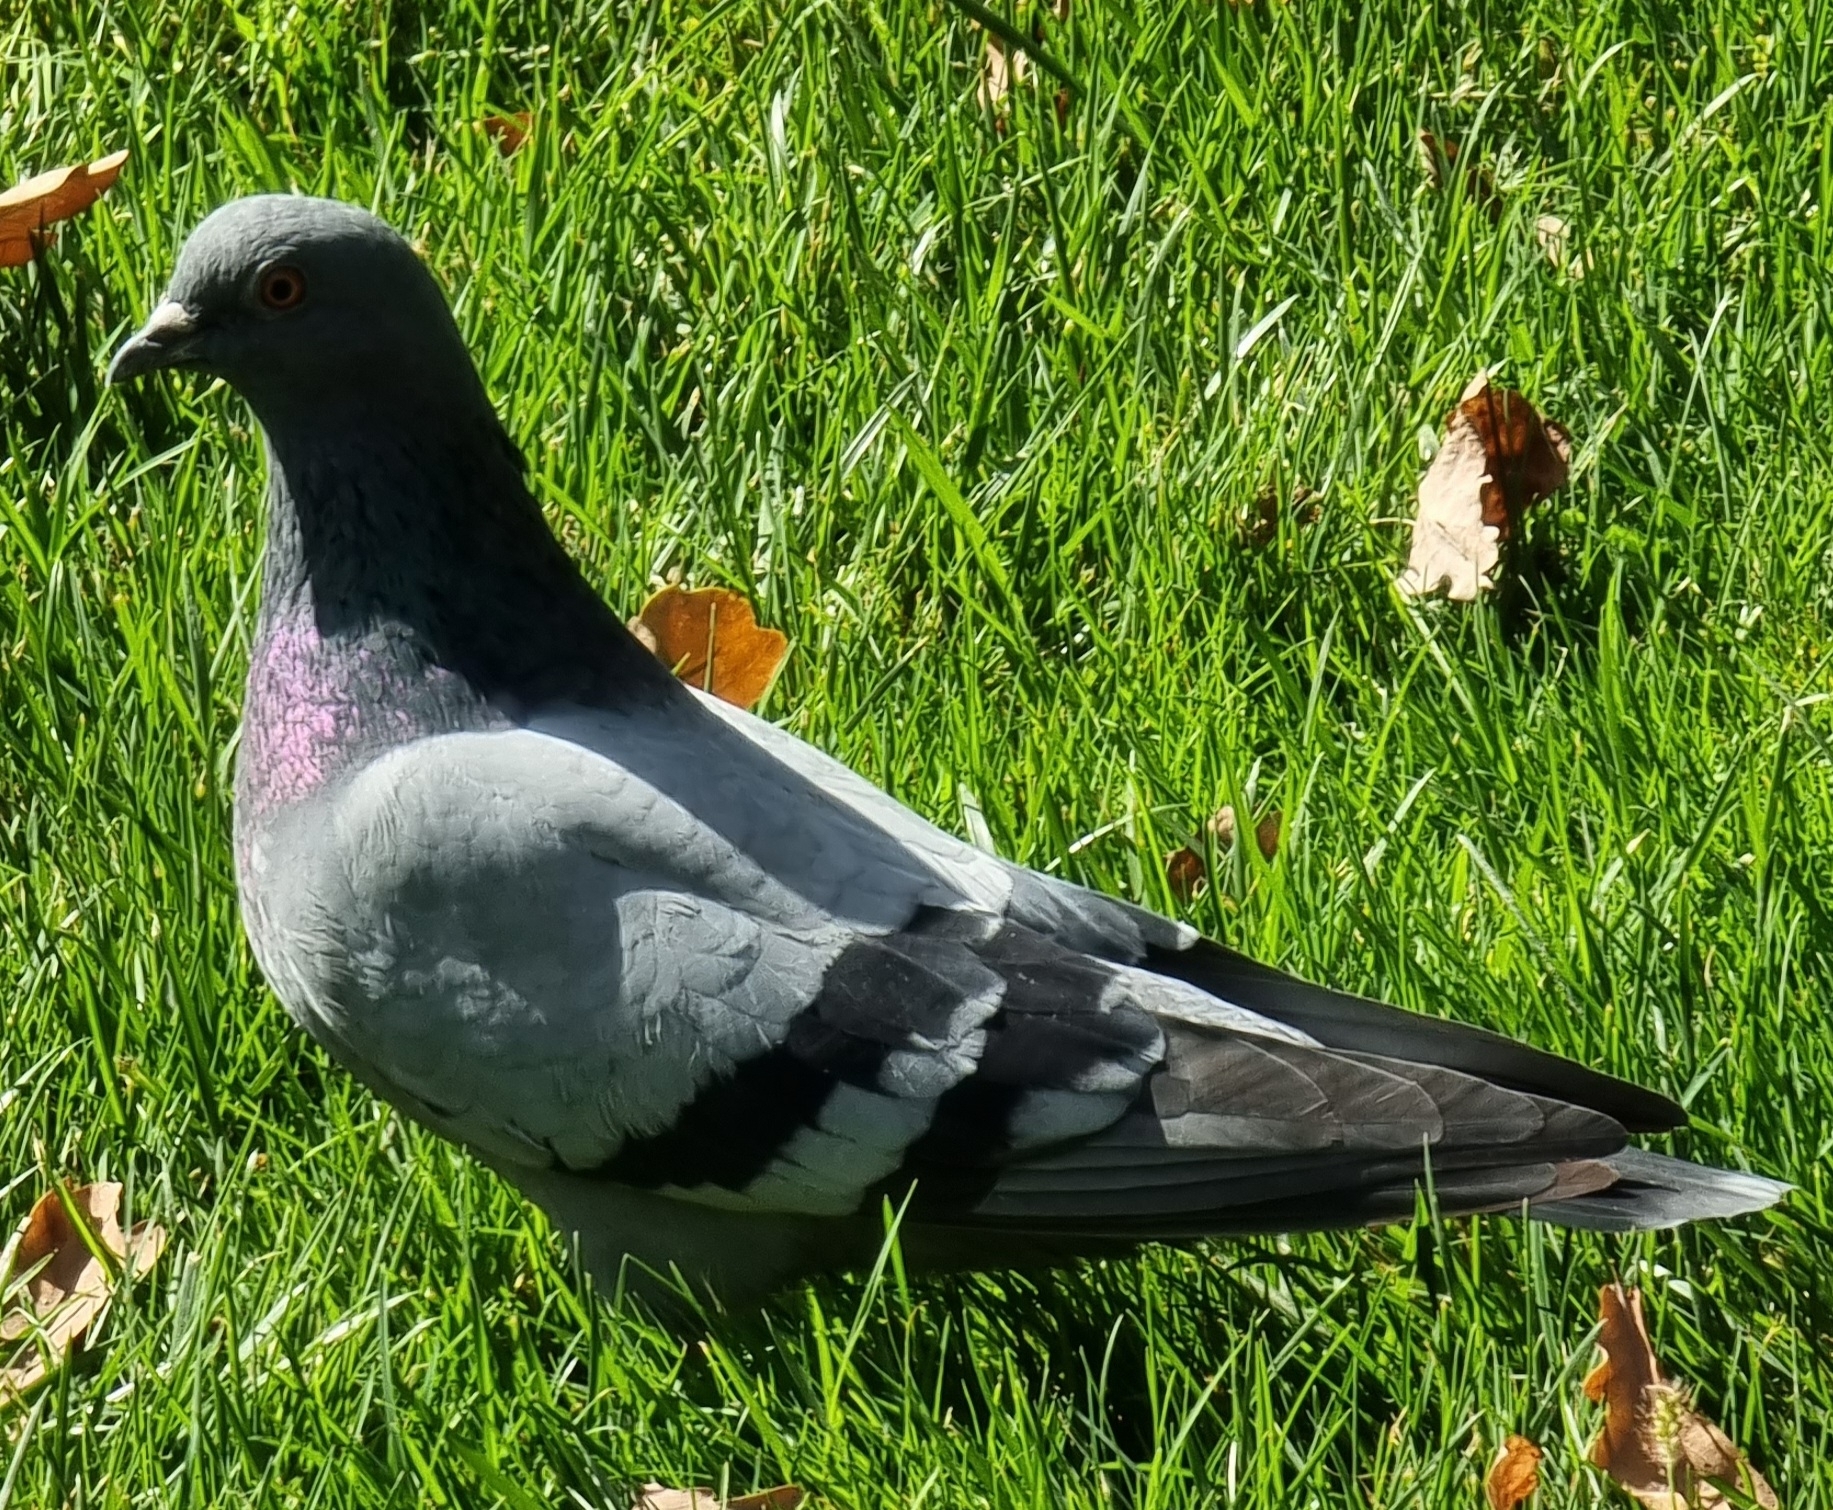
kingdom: Animalia
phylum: Chordata
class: Aves
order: Columbiformes
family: Columbidae
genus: Columba
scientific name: Columba livia
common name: Rock pigeon
